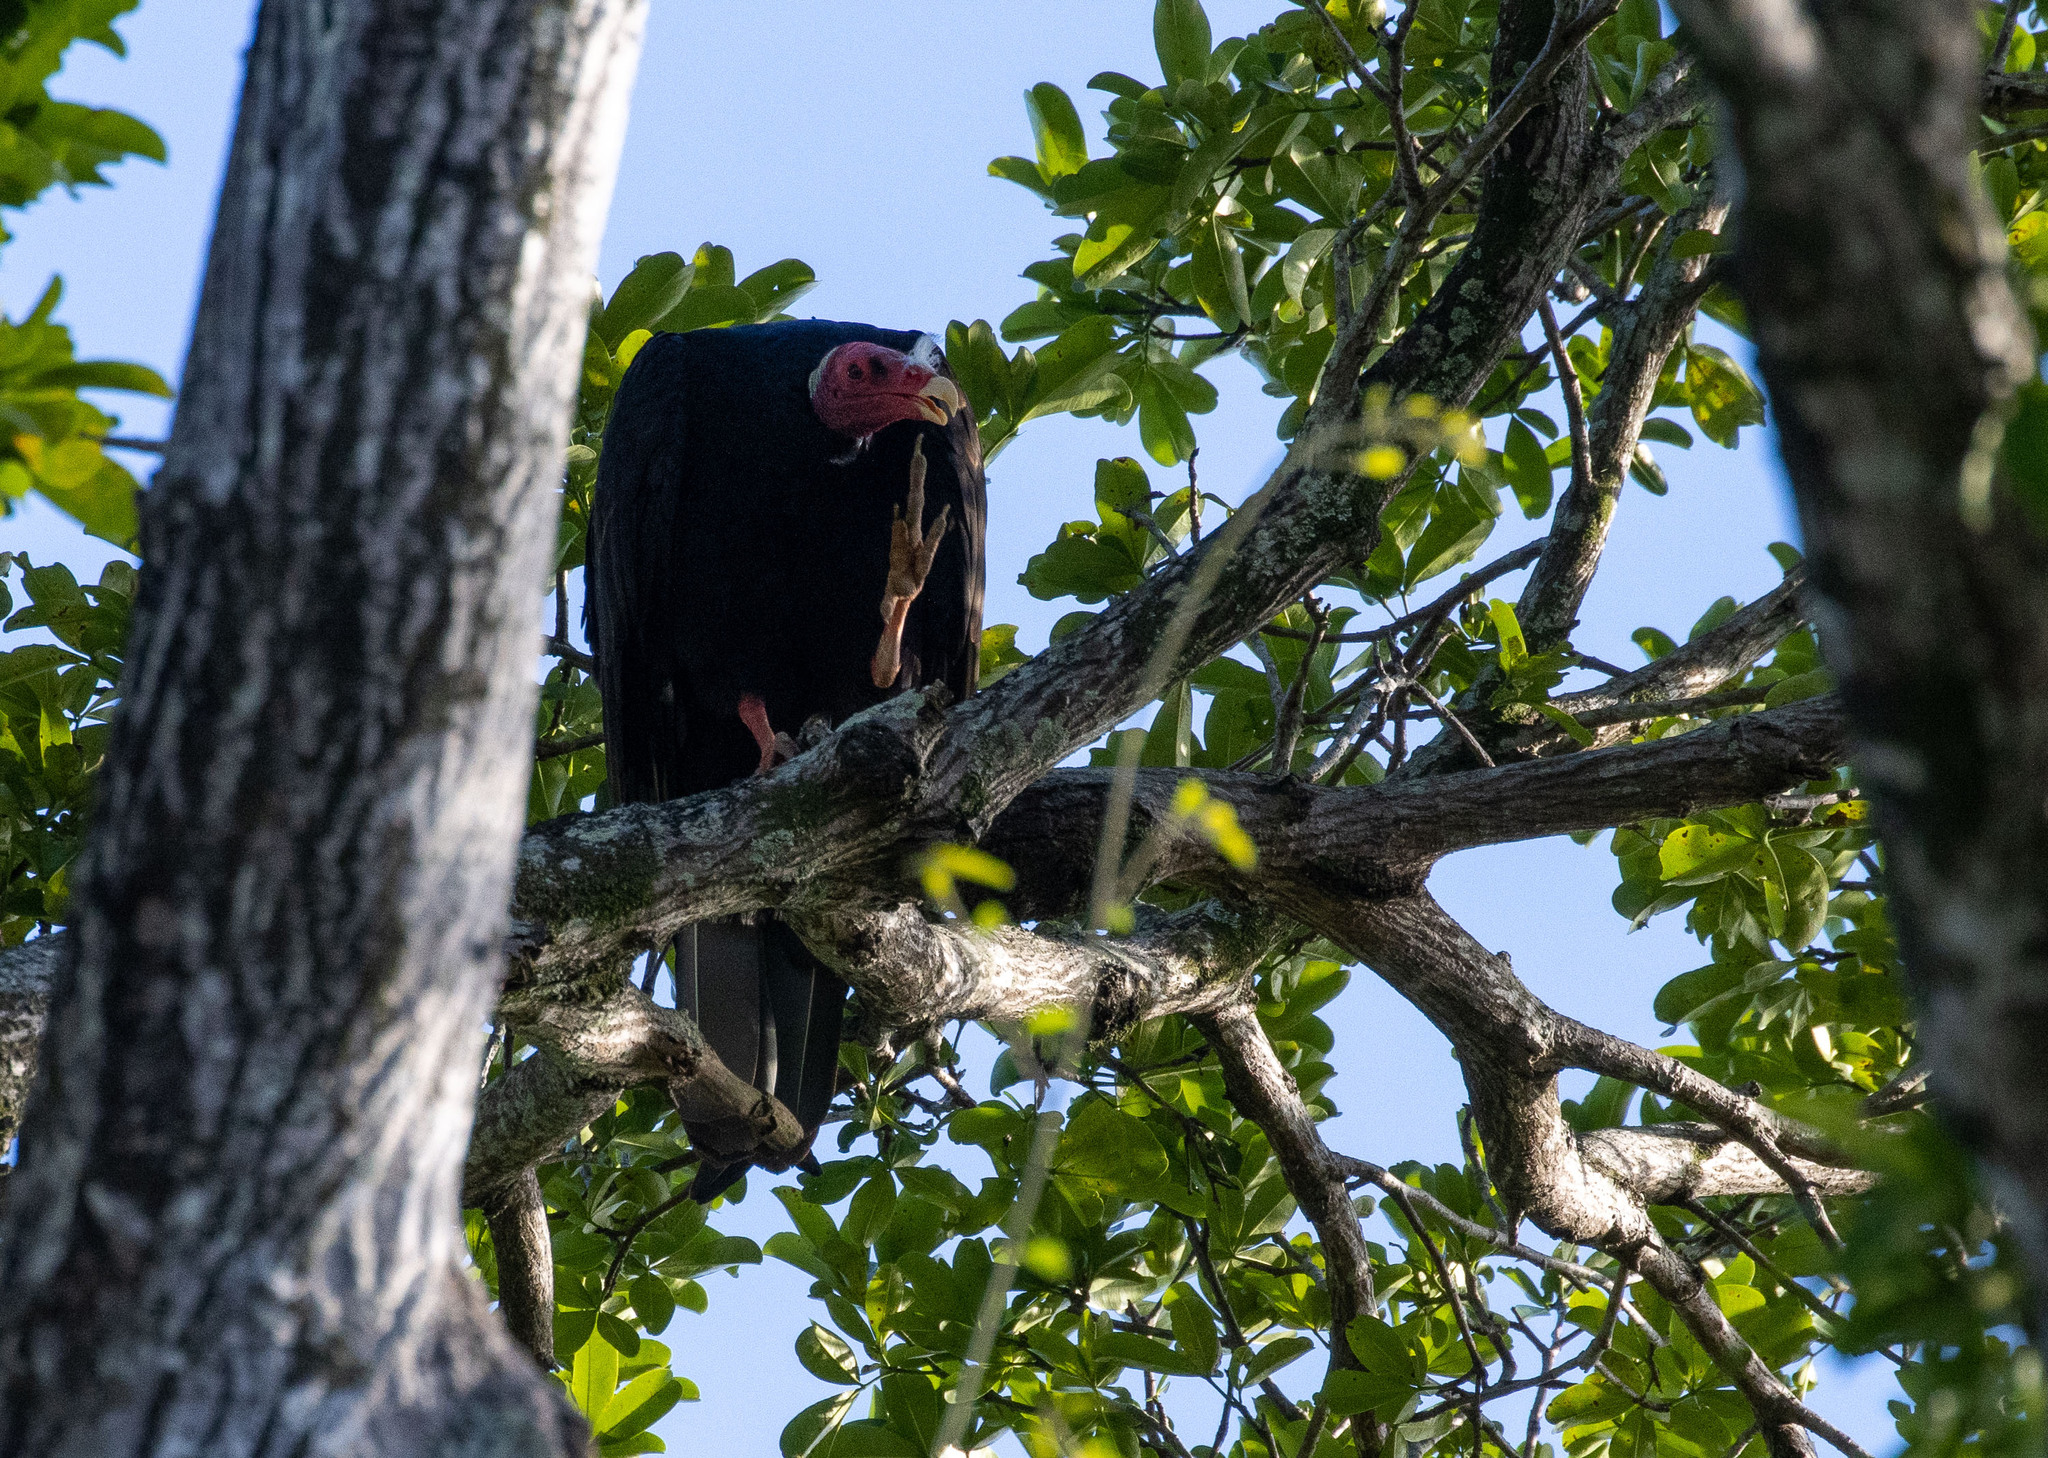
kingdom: Animalia
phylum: Chordata
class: Aves
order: Accipitriformes
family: Cathartidae
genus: Cathartes
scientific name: Cathartes aura
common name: Turkey vulture
